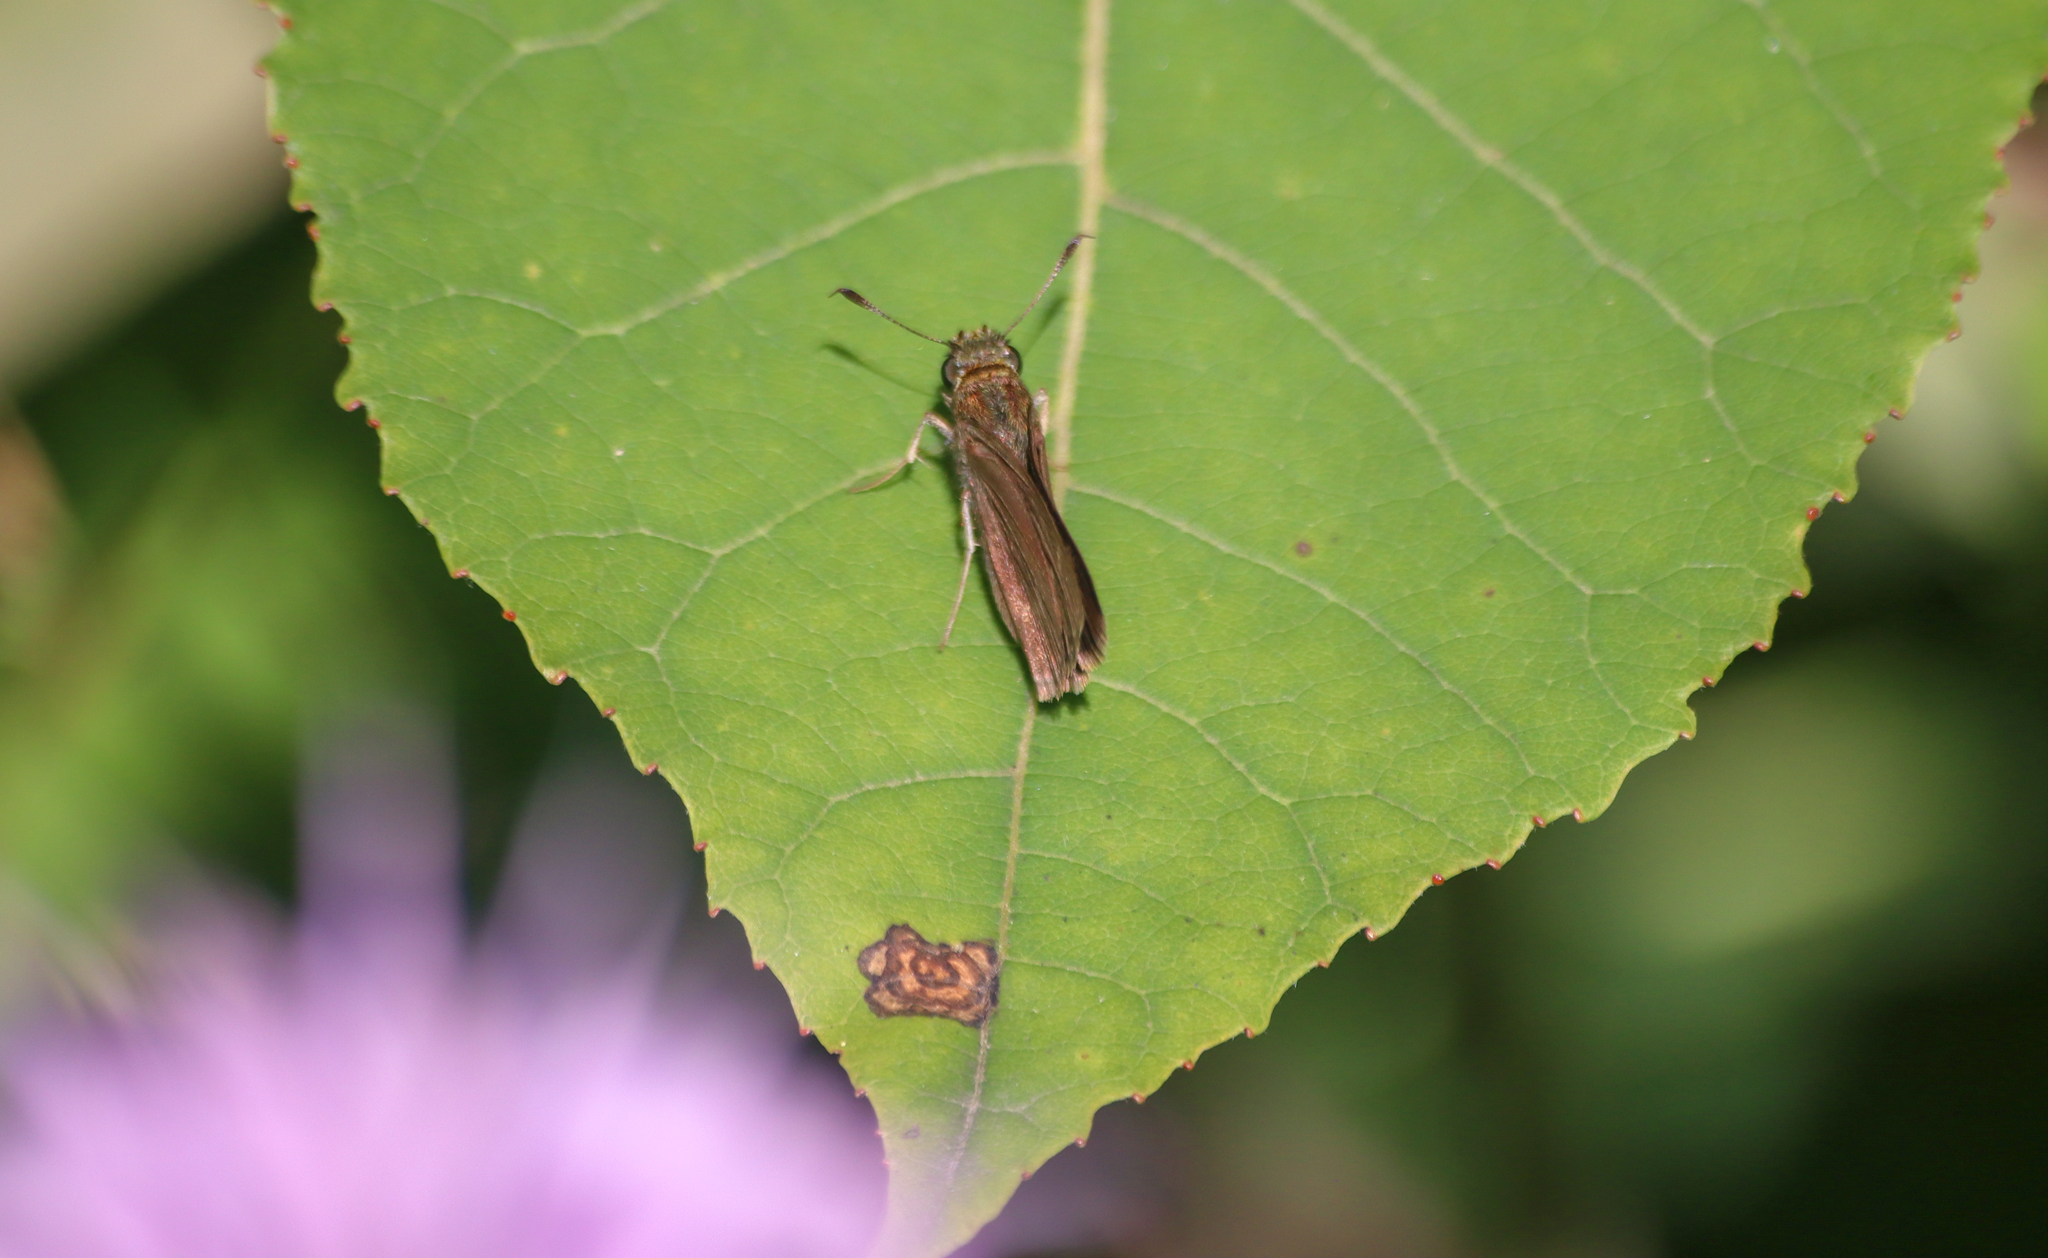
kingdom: Animalia
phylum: Arthropoda
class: Insecta
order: Lepidoptera
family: Hesperiidae
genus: Euphyes
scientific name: Euphyes vestris
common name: Dun skipper
